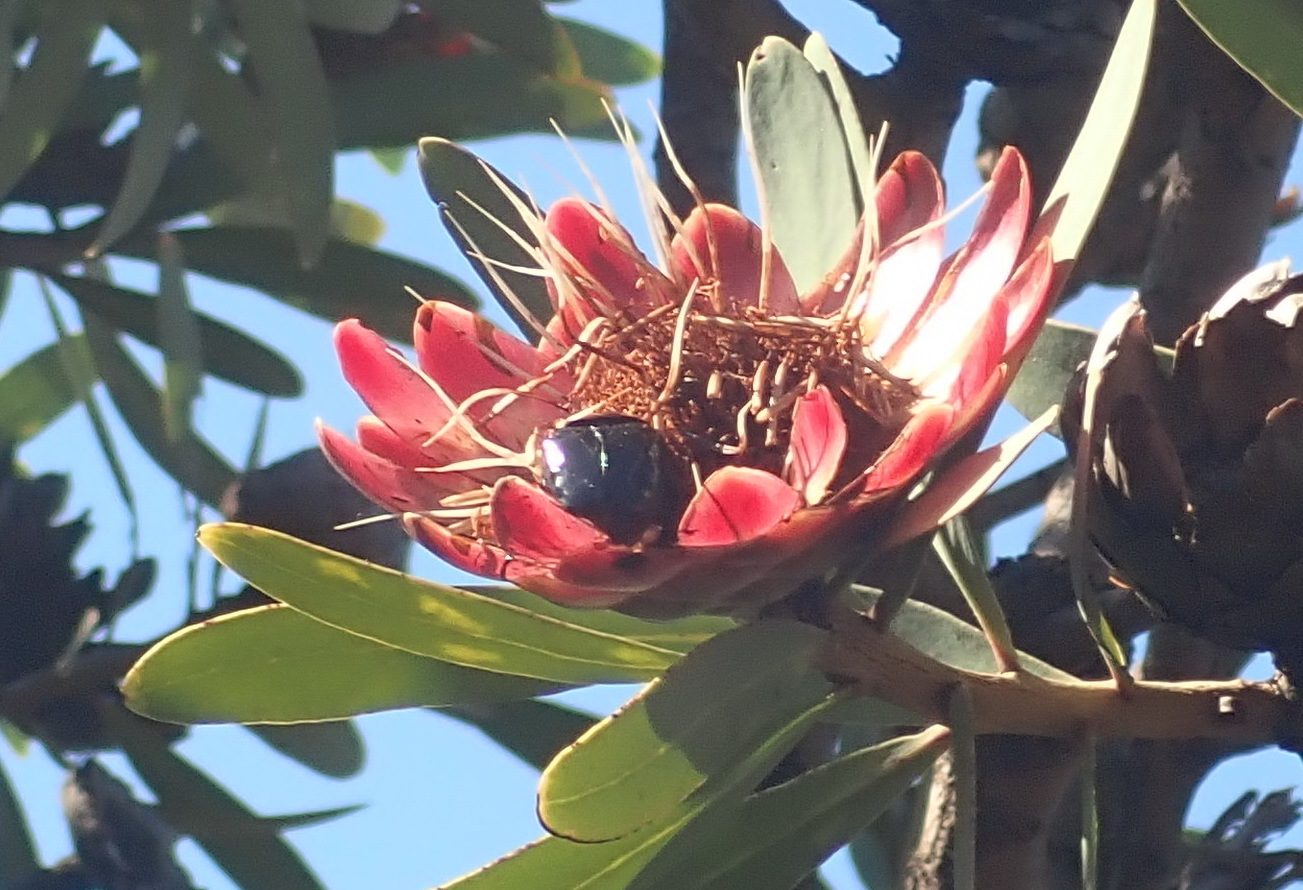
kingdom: Plantae
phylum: Tracheophyta
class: Magnoliopsida
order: Proteales
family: Proteaceae
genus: Protea
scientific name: Protea caffra
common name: Common sugarbush
